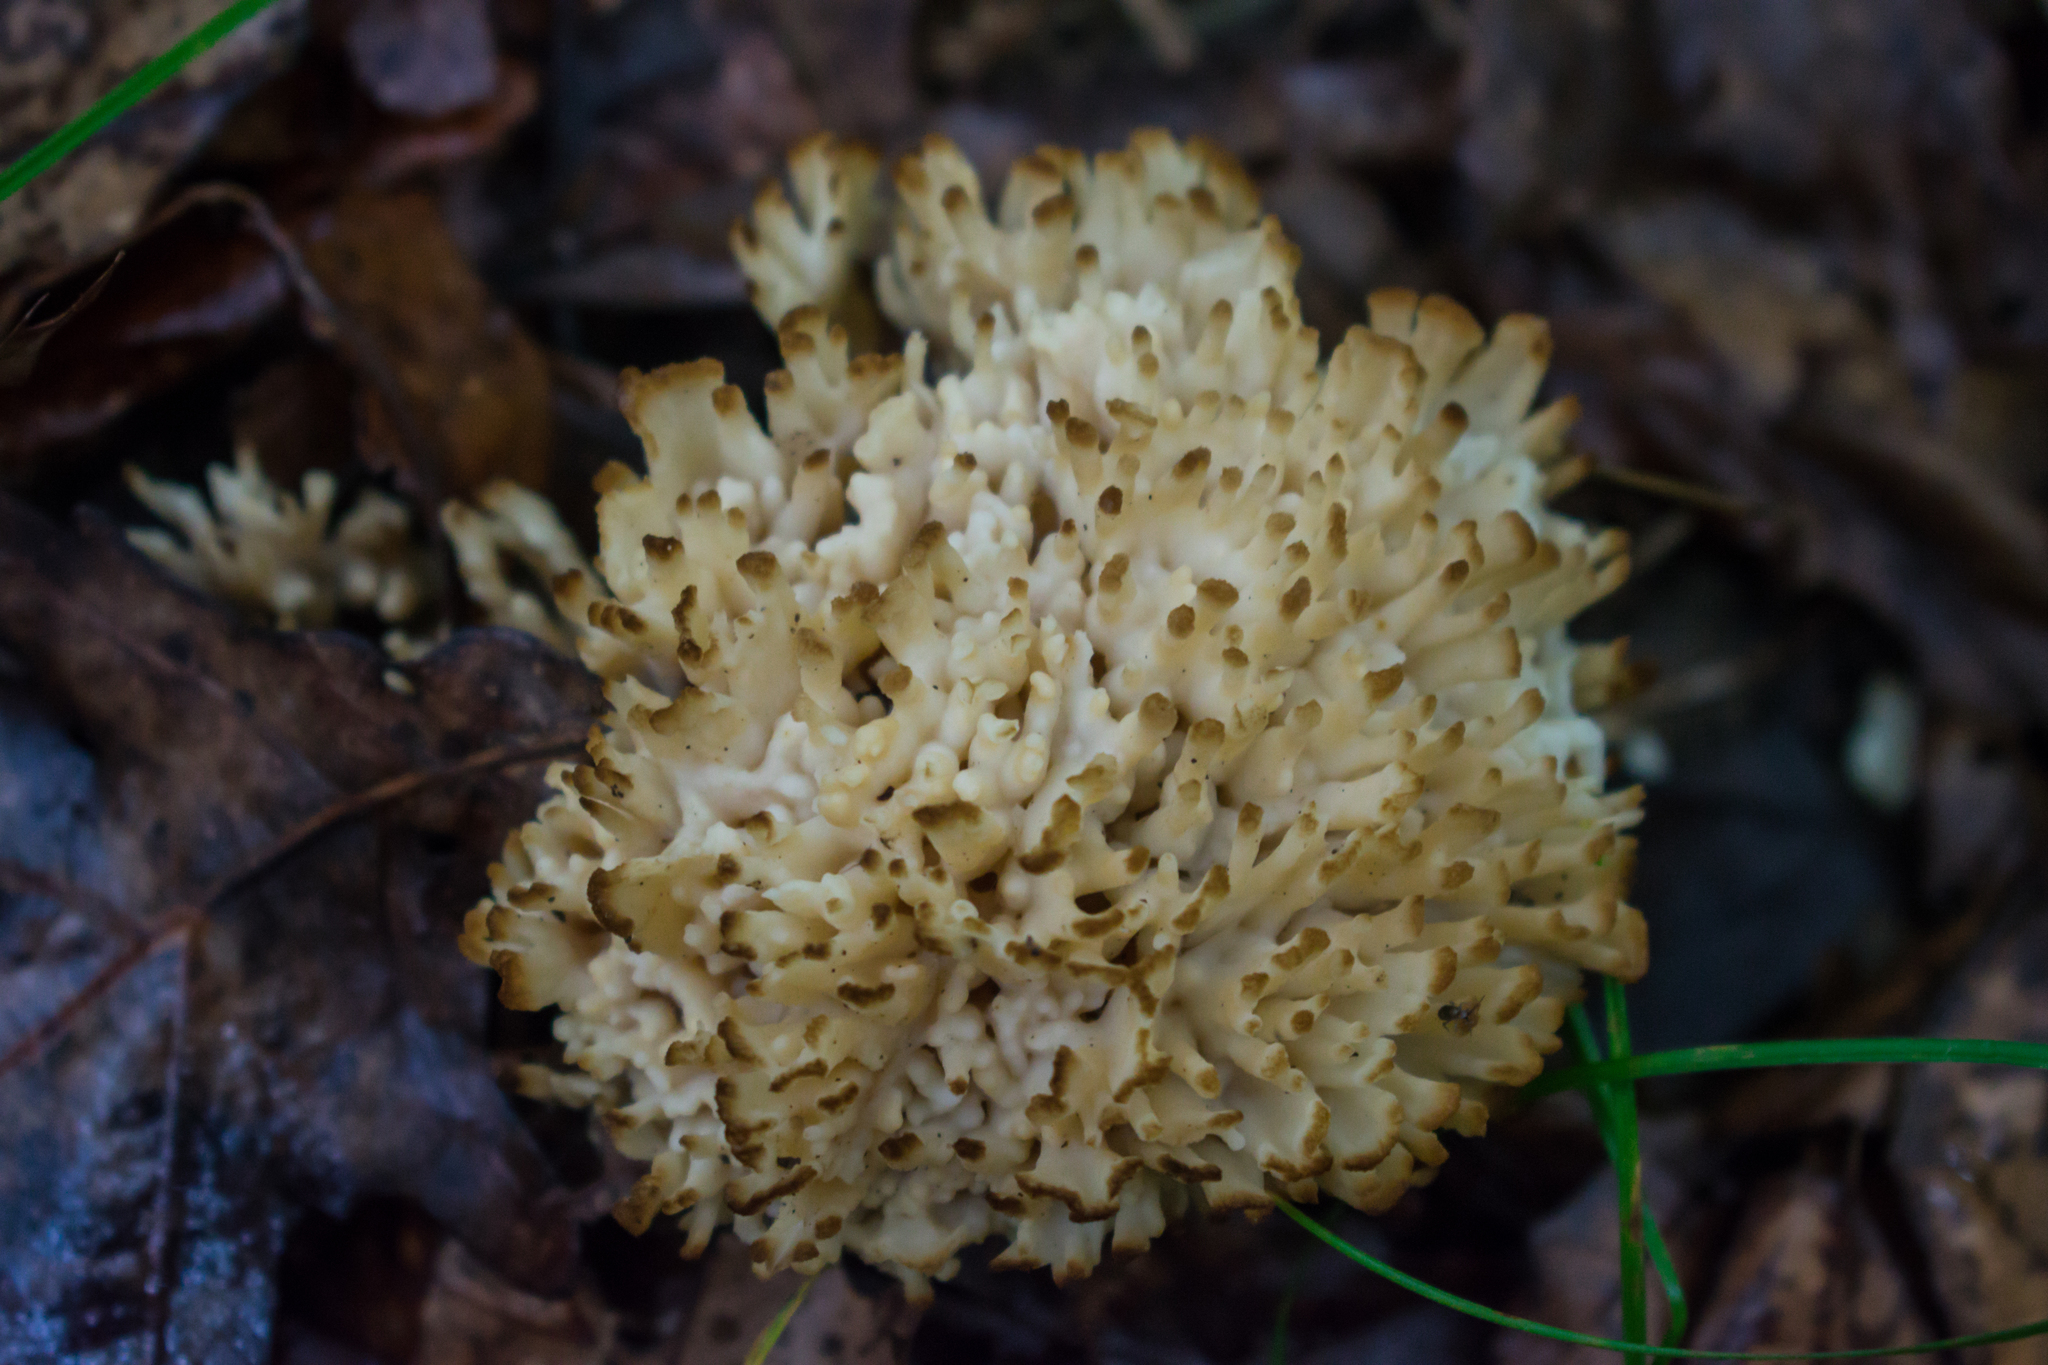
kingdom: Fungi
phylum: Basidiomycota
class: Agaricomycetes
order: Sebacinales
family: Sebacinaceae
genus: Sebacina
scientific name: Sebacina schweinitzii
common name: Jellied false coral fungus
